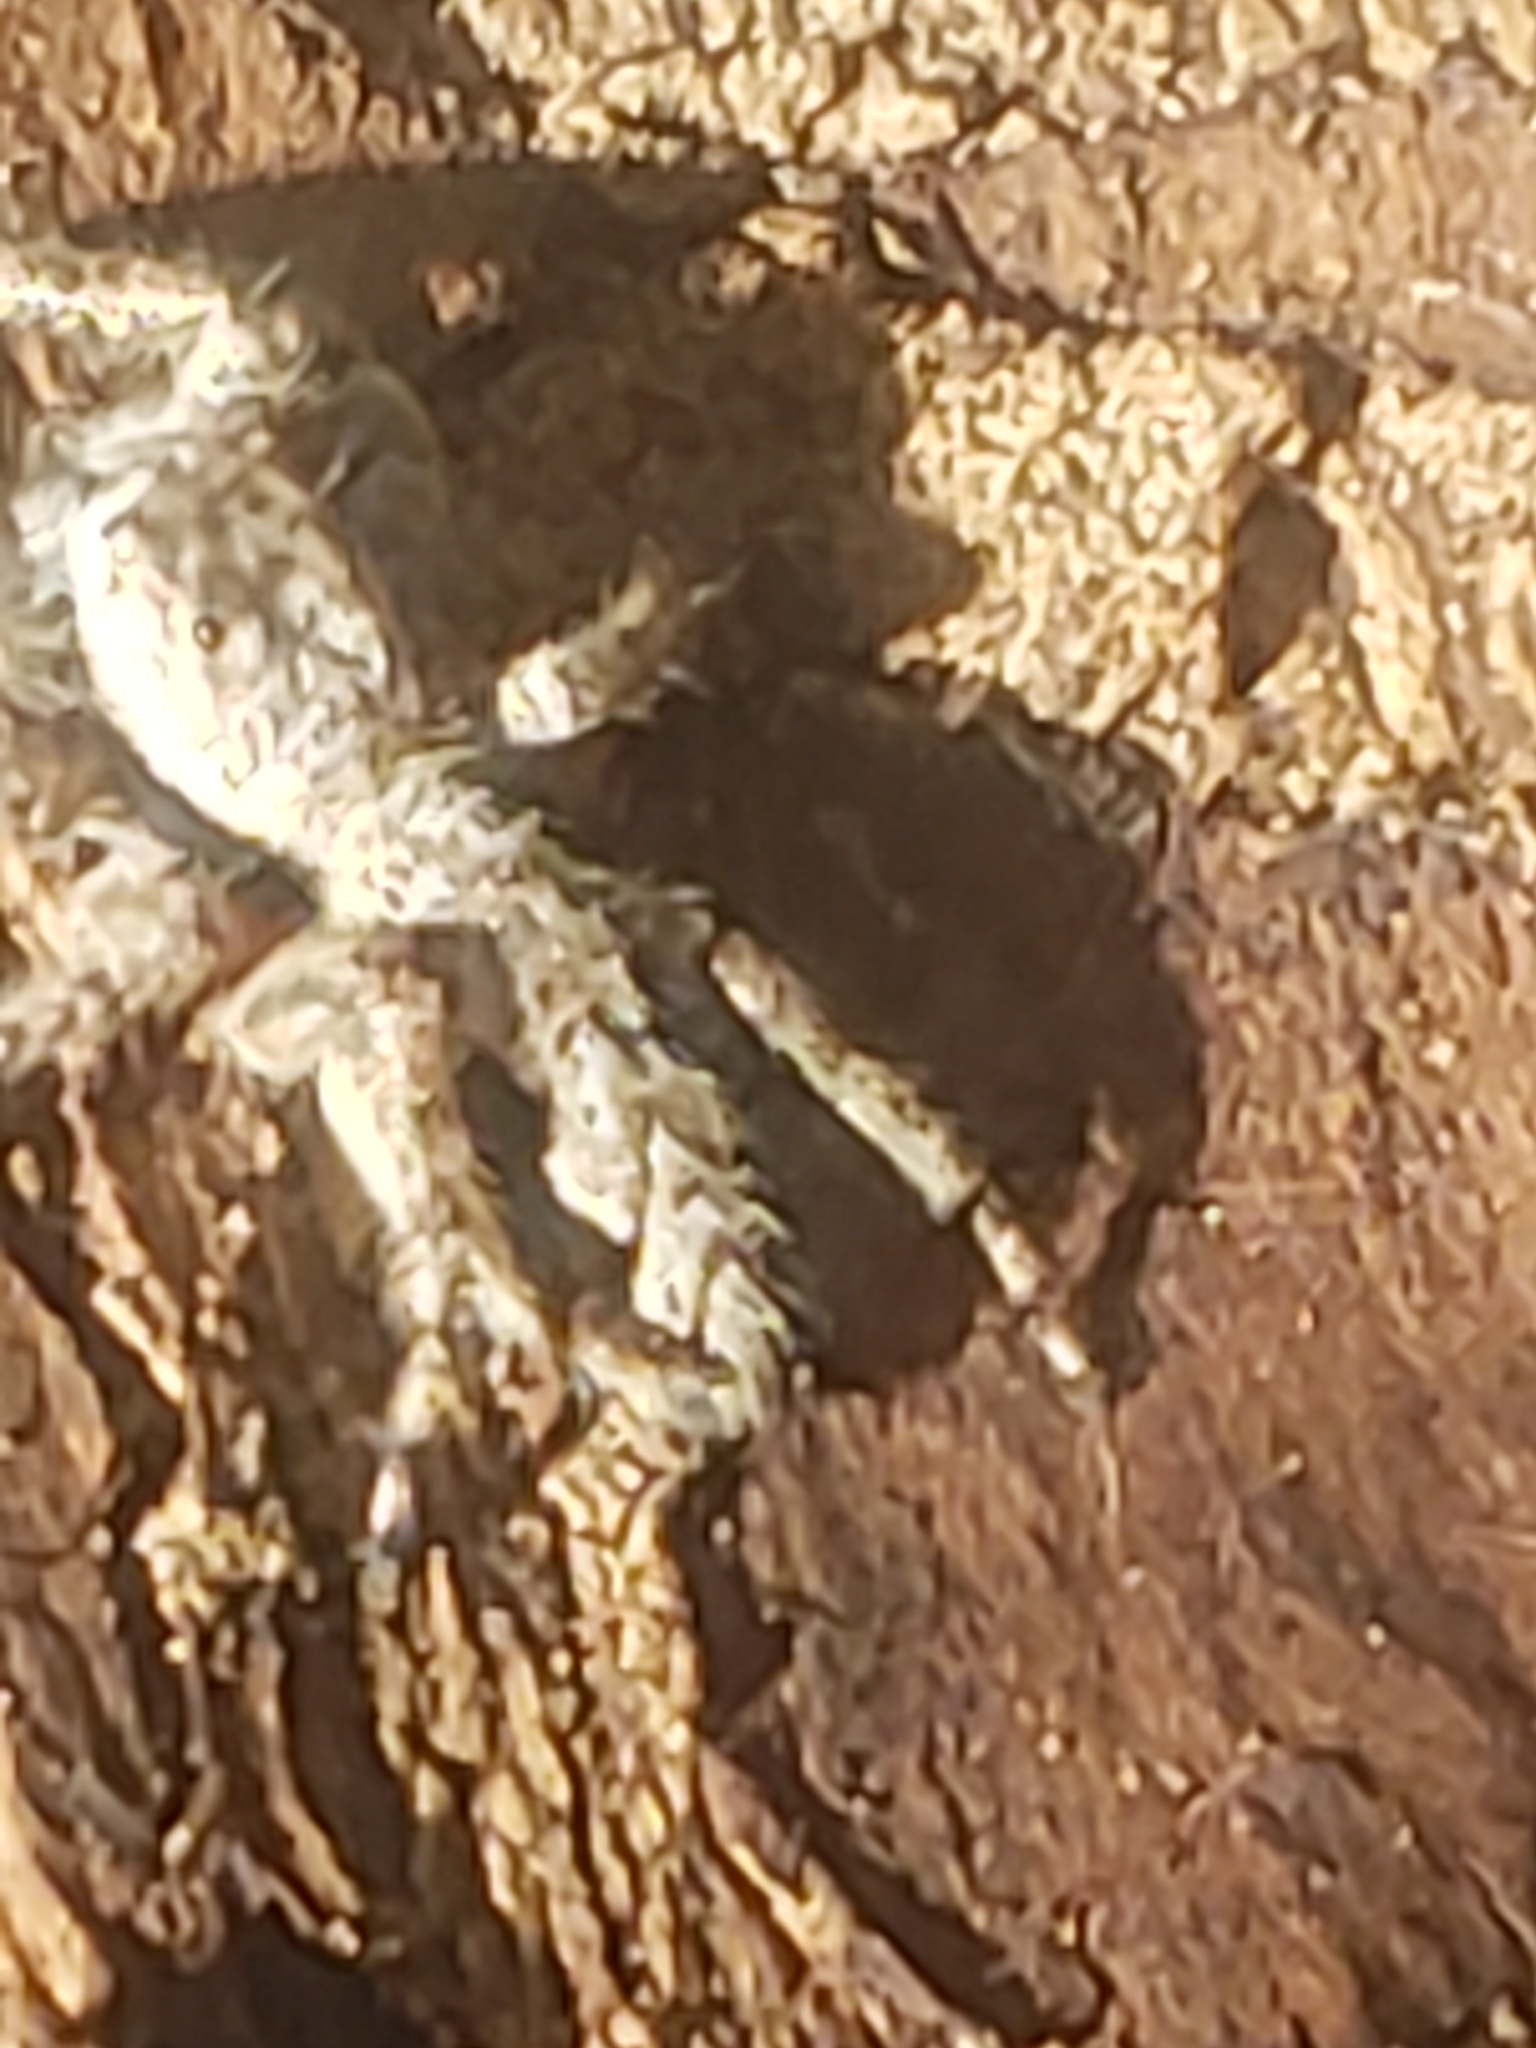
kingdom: Animalia
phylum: Arthropoda
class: Arachnida
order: Araneae
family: Salticidae
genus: Platycryptus
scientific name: Platycryptus undatus
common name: Tan jumping spider
